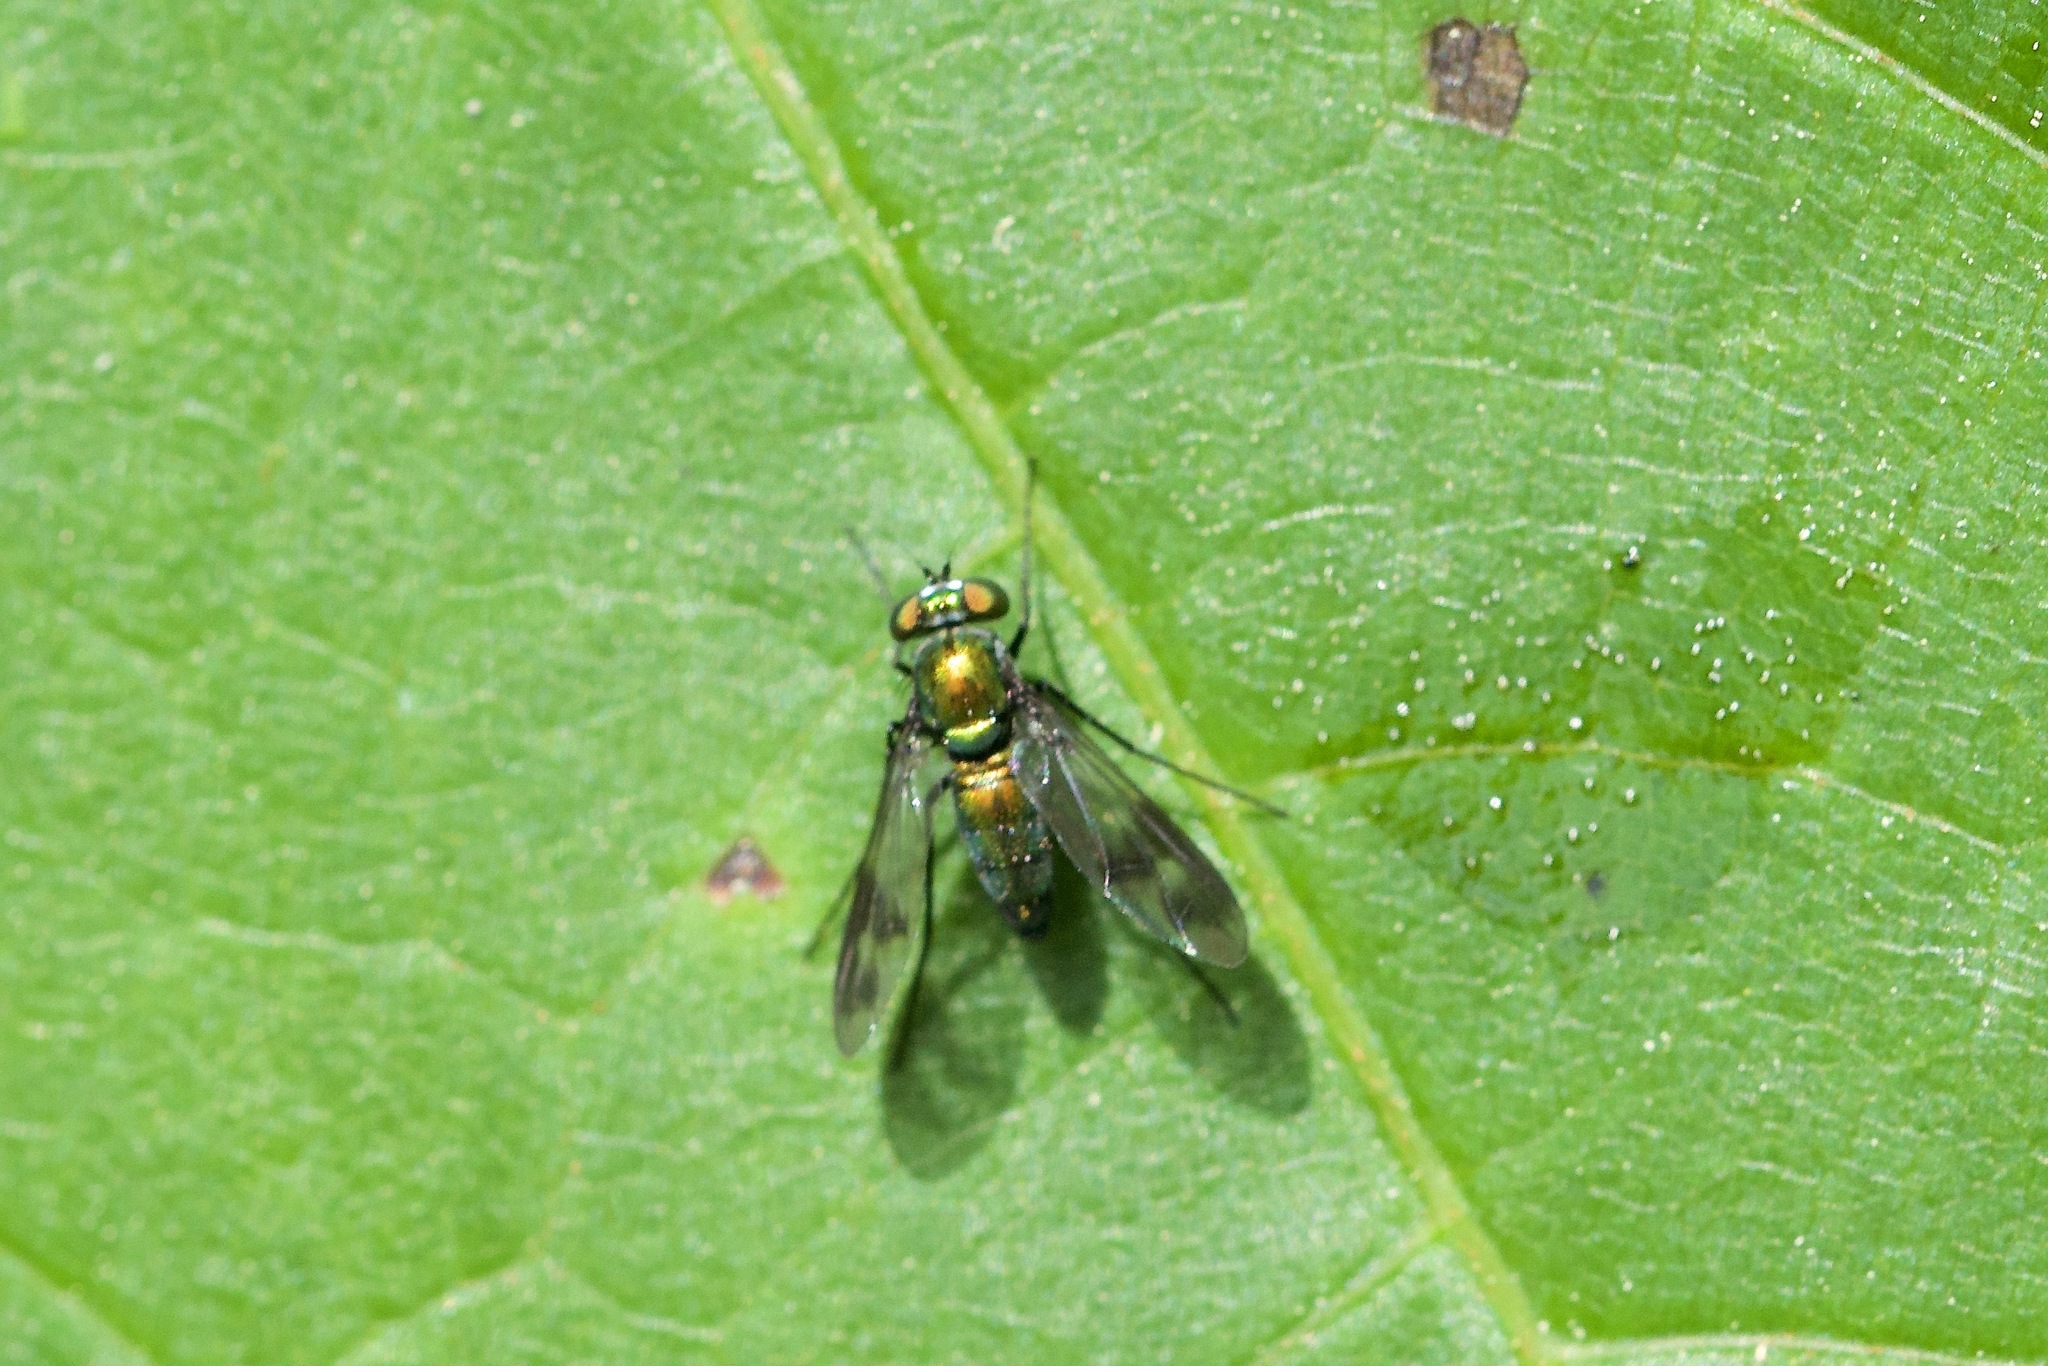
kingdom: Animalia
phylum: Arthropoda
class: Insecta
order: Diptera
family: Dolichopodidae
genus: Condylostylus
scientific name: Condylostylus patibulatus
